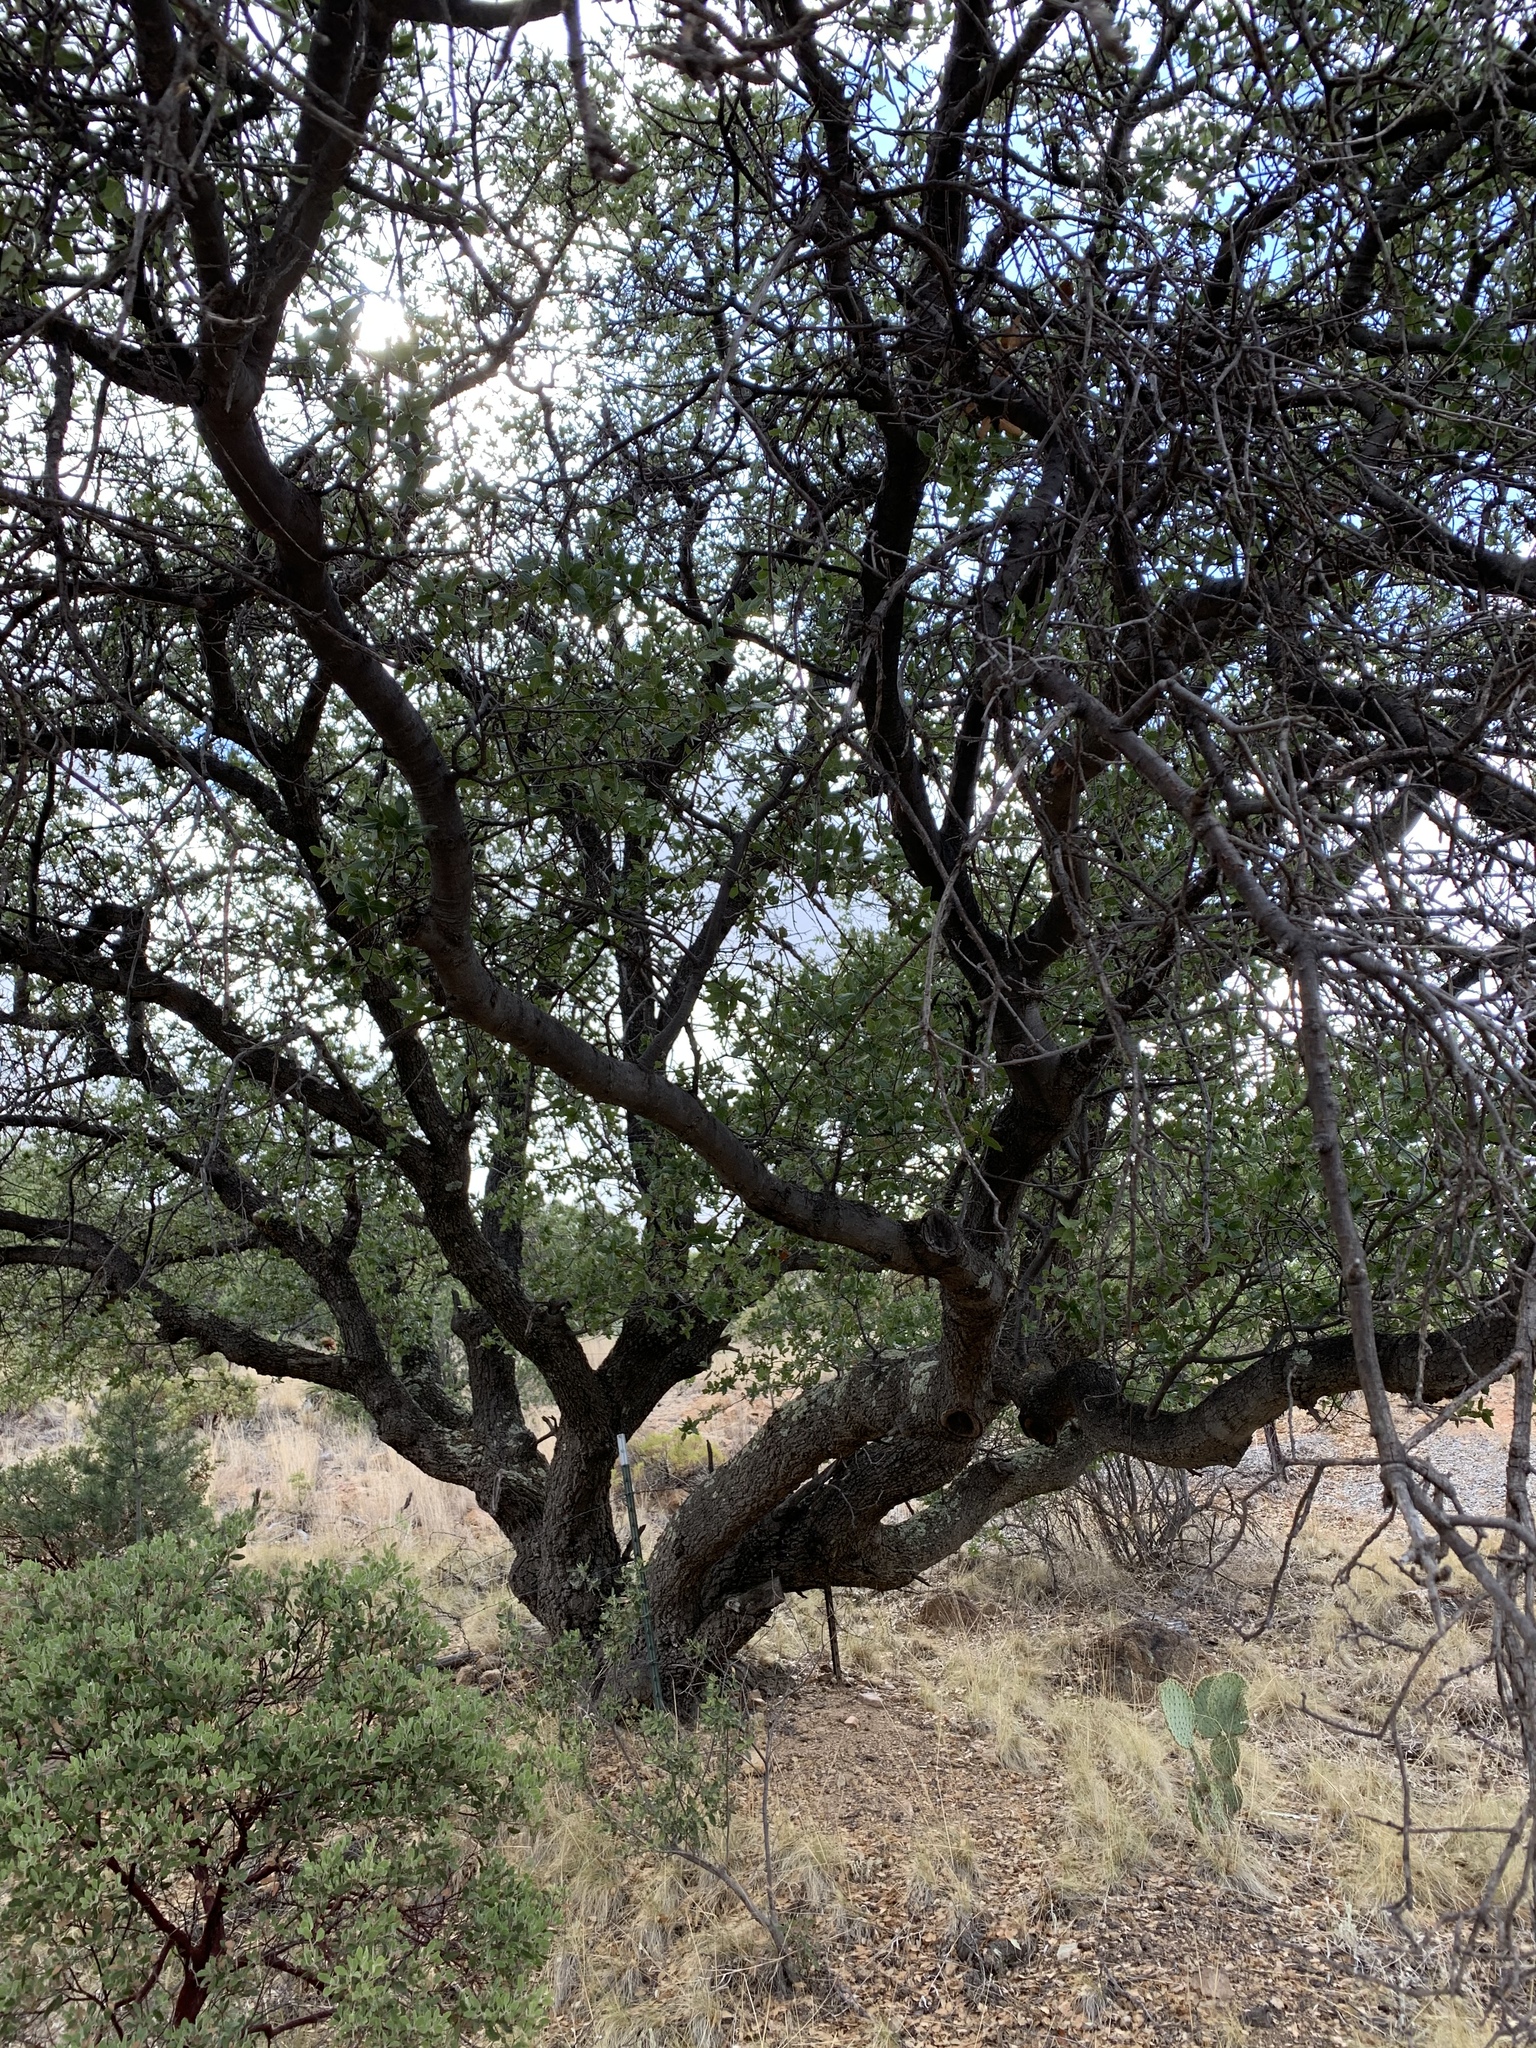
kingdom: Plantae
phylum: Tracheophyta
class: Magnoliopsida
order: Fagales
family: Fagaceae
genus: Quercus
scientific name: Quercus emoryi
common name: Emory oak
